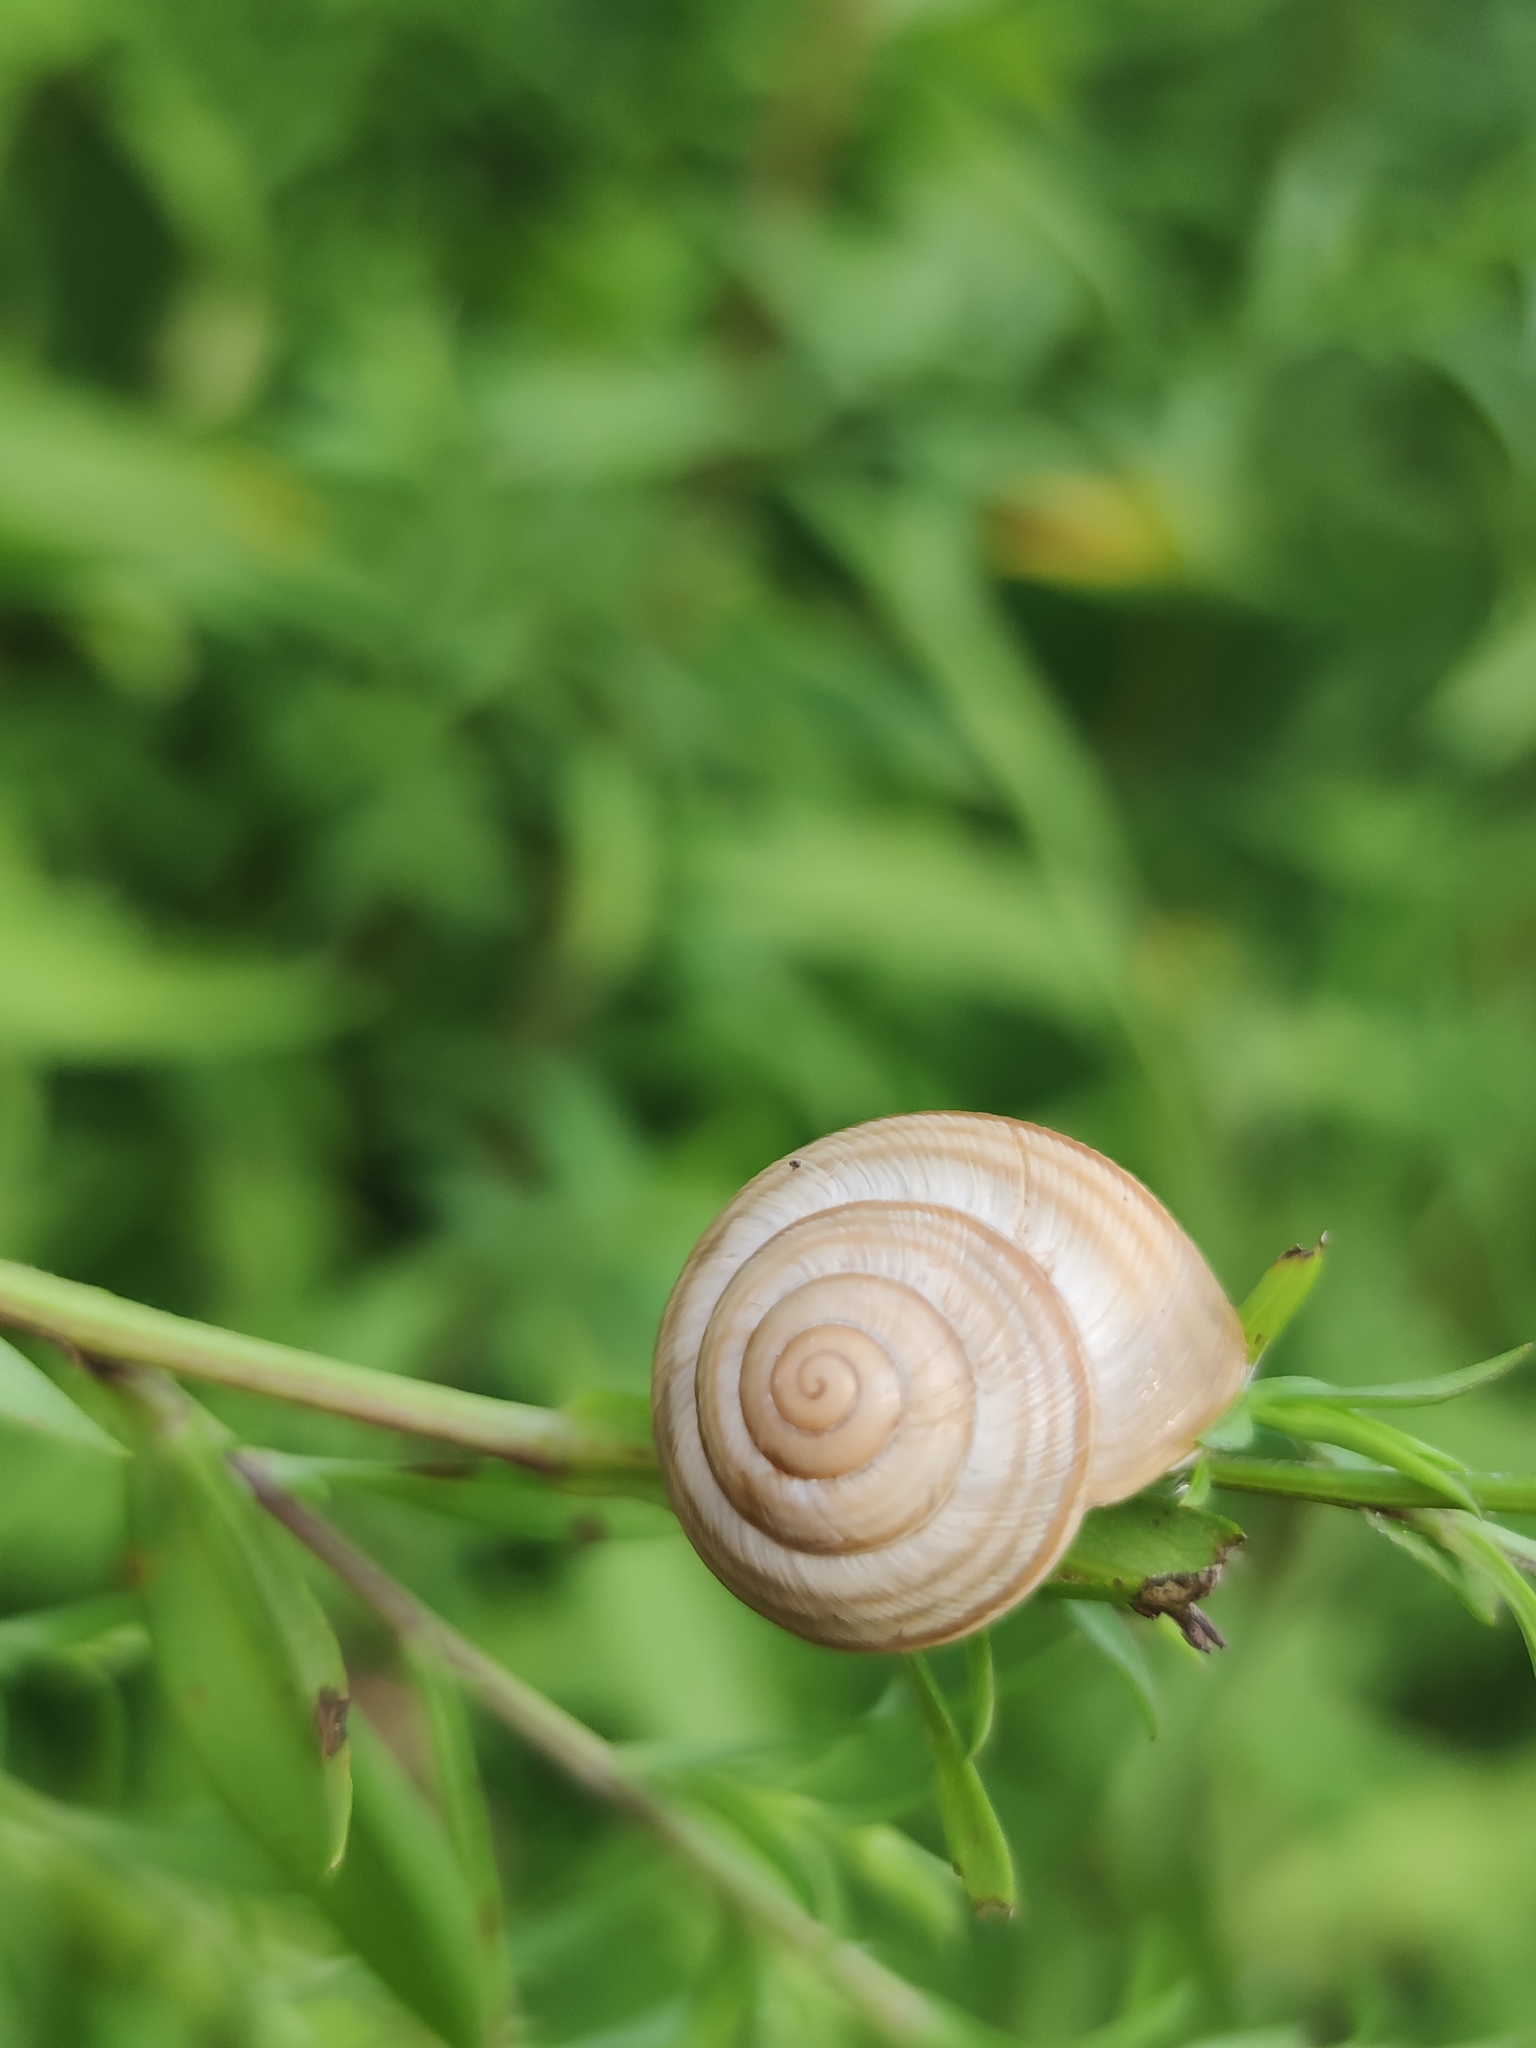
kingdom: Animalia
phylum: Mollusca
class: Gastropoda
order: Stylommatophora
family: Helicidae
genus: Caucasotachea
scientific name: Caucasotachea vindobonensis
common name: European helicid land snail
